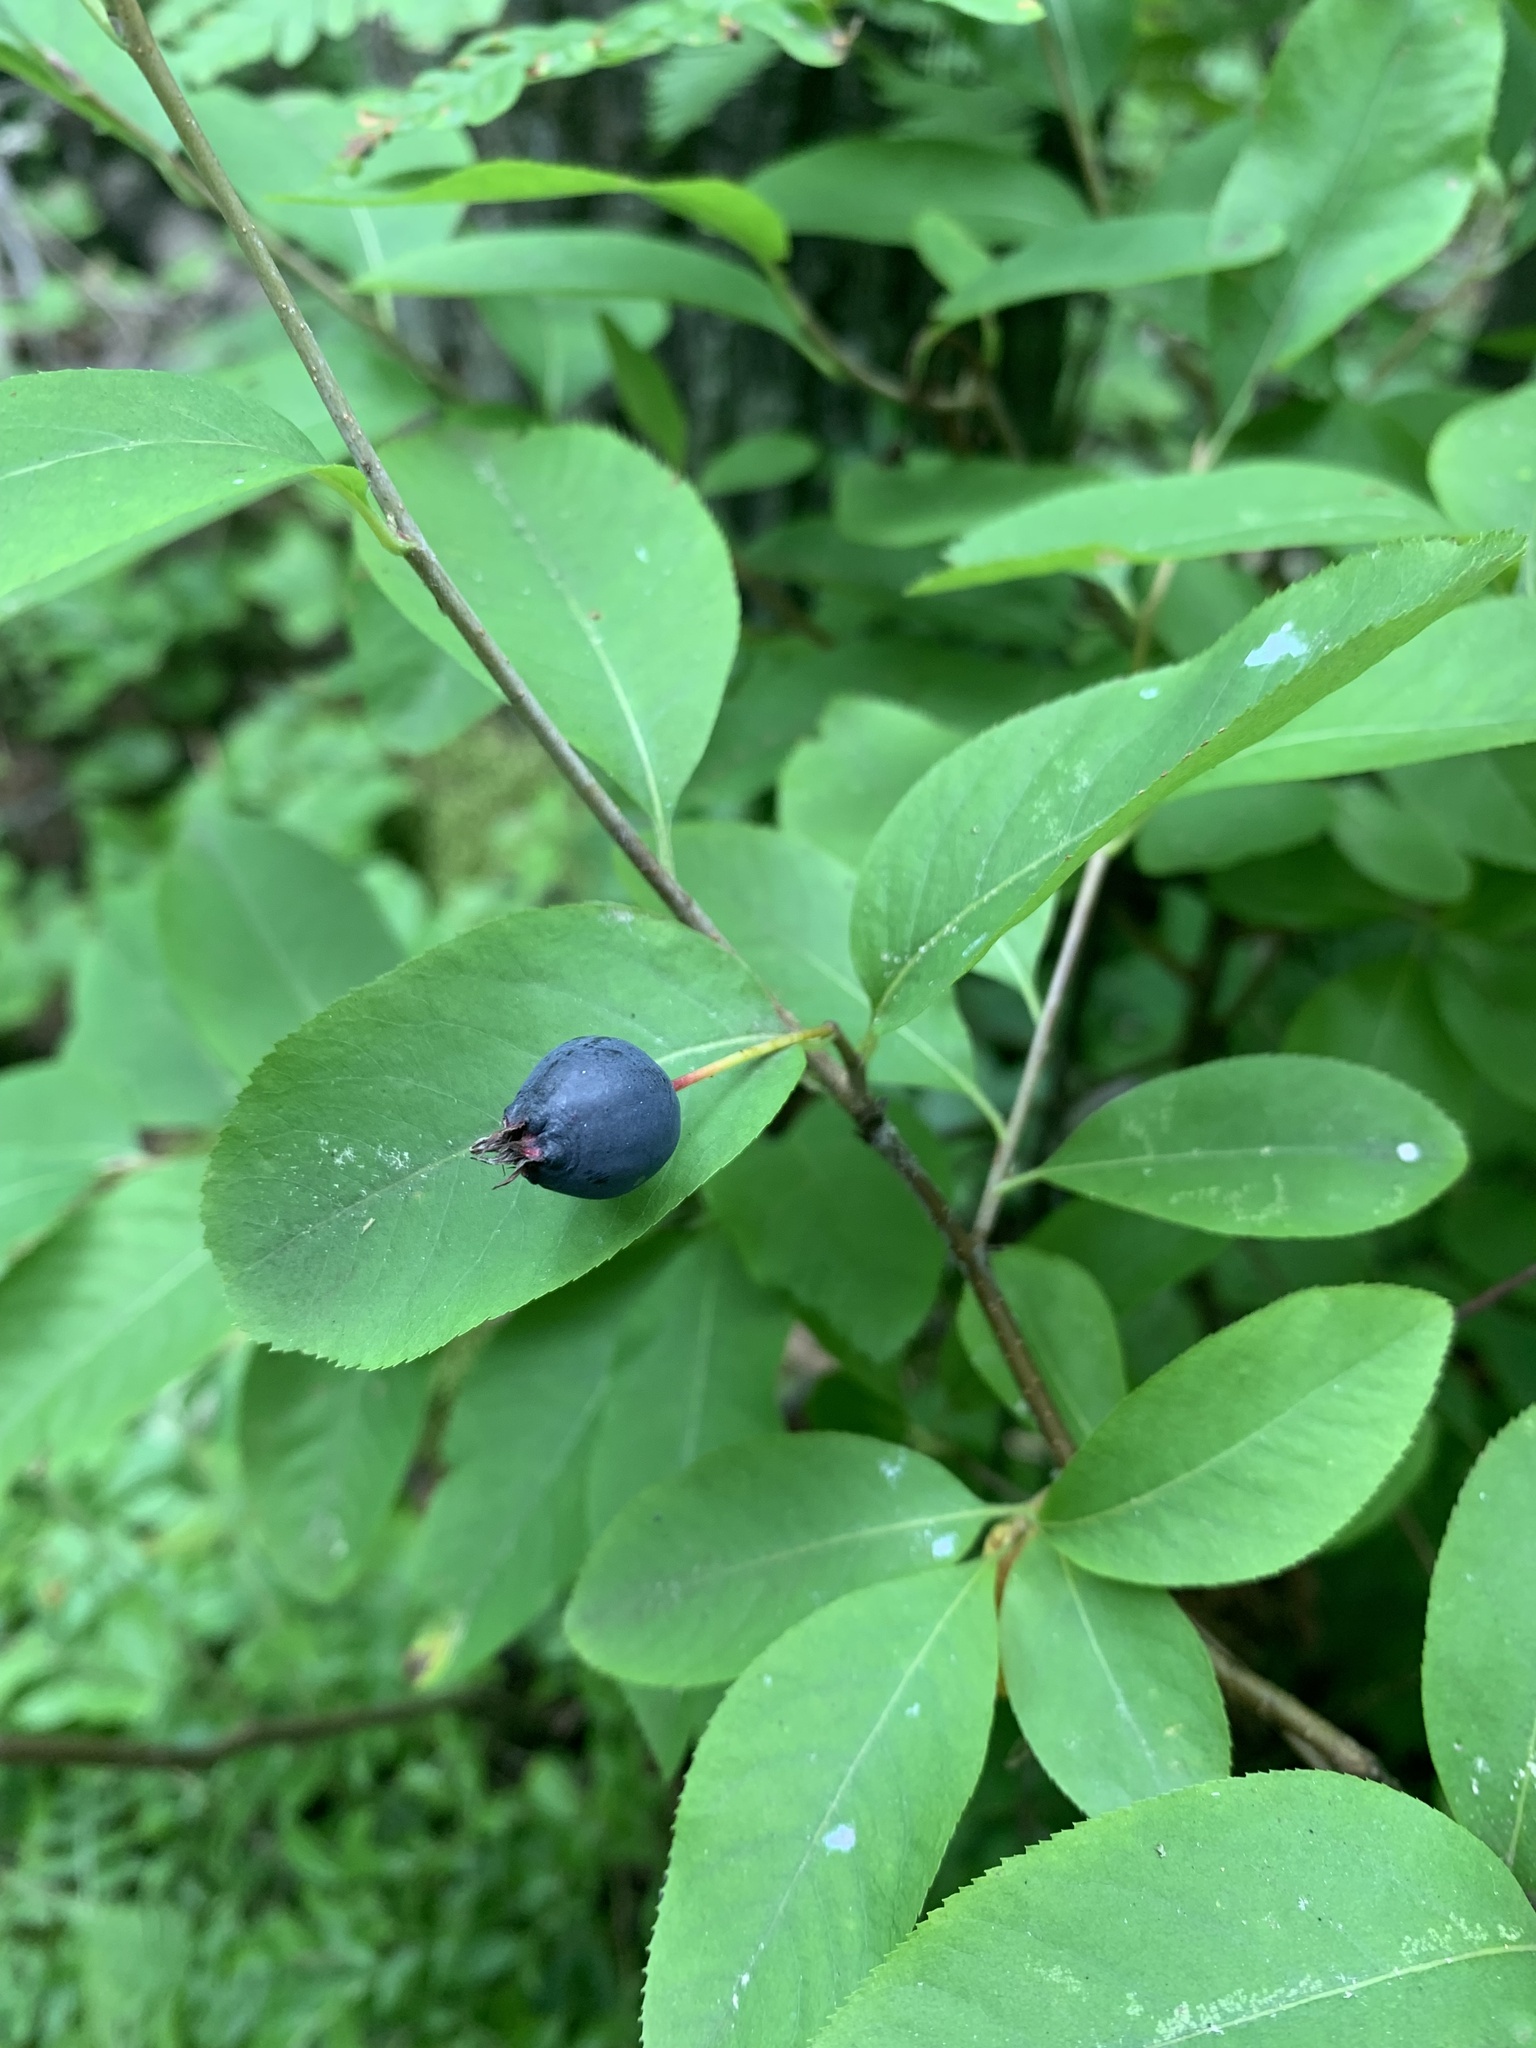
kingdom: Plantae
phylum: Tracheophyta
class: Magnoliopsida
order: Rosales
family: Rosaceae
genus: Amelanchier
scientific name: Amelanchier bartramiana
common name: Mountain serviceberry
